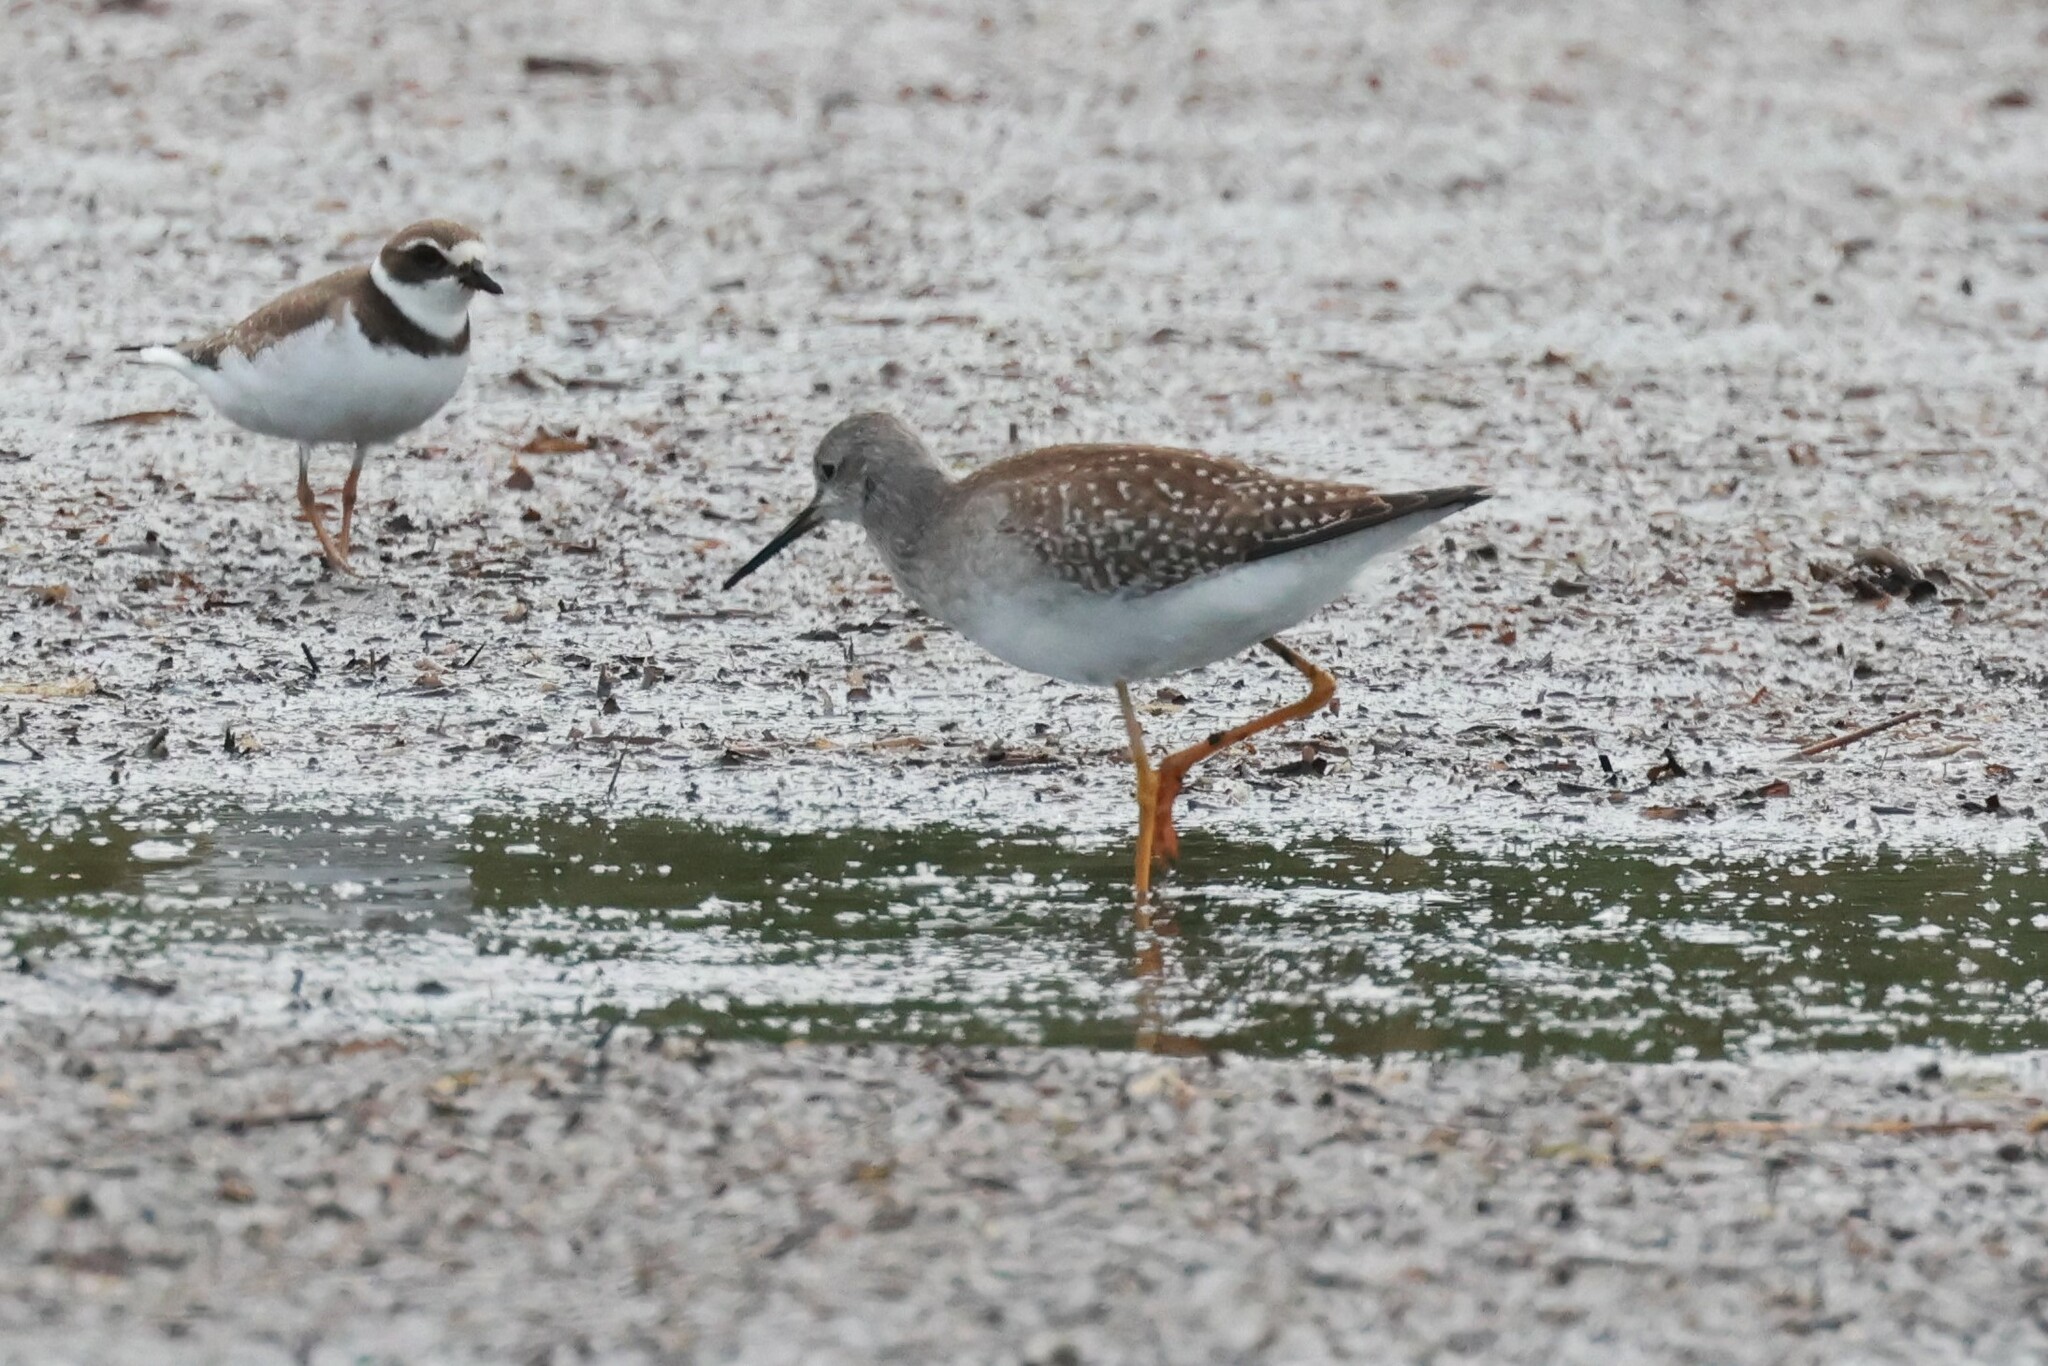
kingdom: Animalia
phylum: Chordata
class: Aves
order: Charadriiformes
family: Scolopacidae
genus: Tringa
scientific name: Tringa flavipes
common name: Lesser yellowlegs
